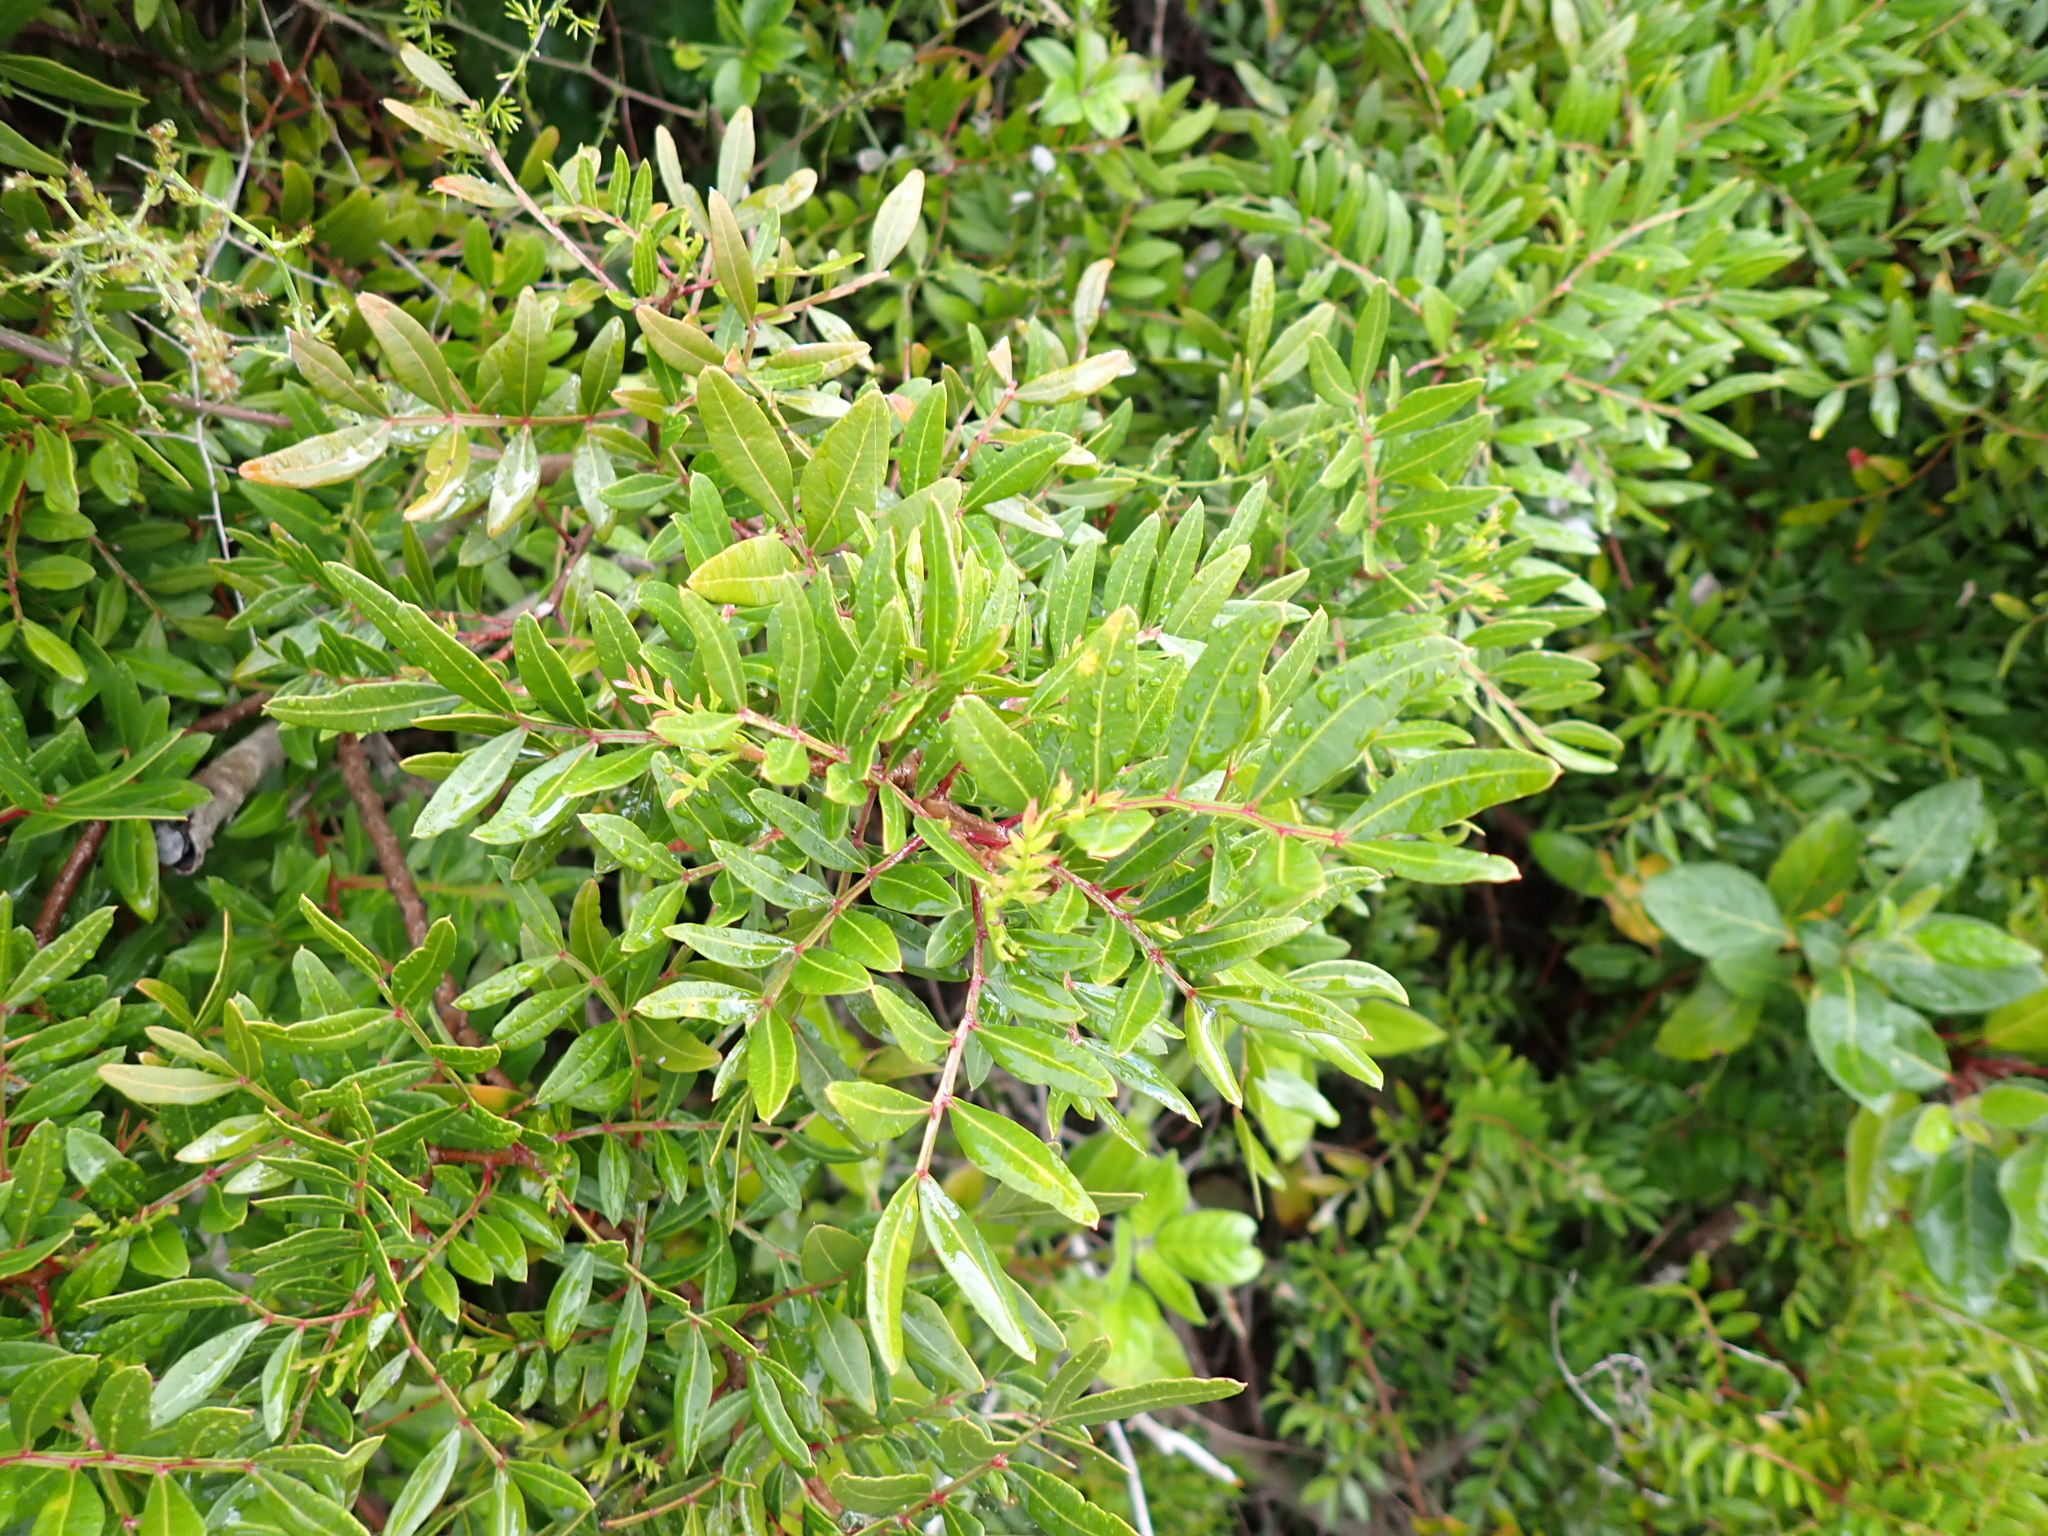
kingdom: Plantae
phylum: Tracheophyta
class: Magnoliopsida
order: Sapindales
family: Anacardiaceae
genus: Pistacia
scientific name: Pistacia lentiscus
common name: Lentisk
